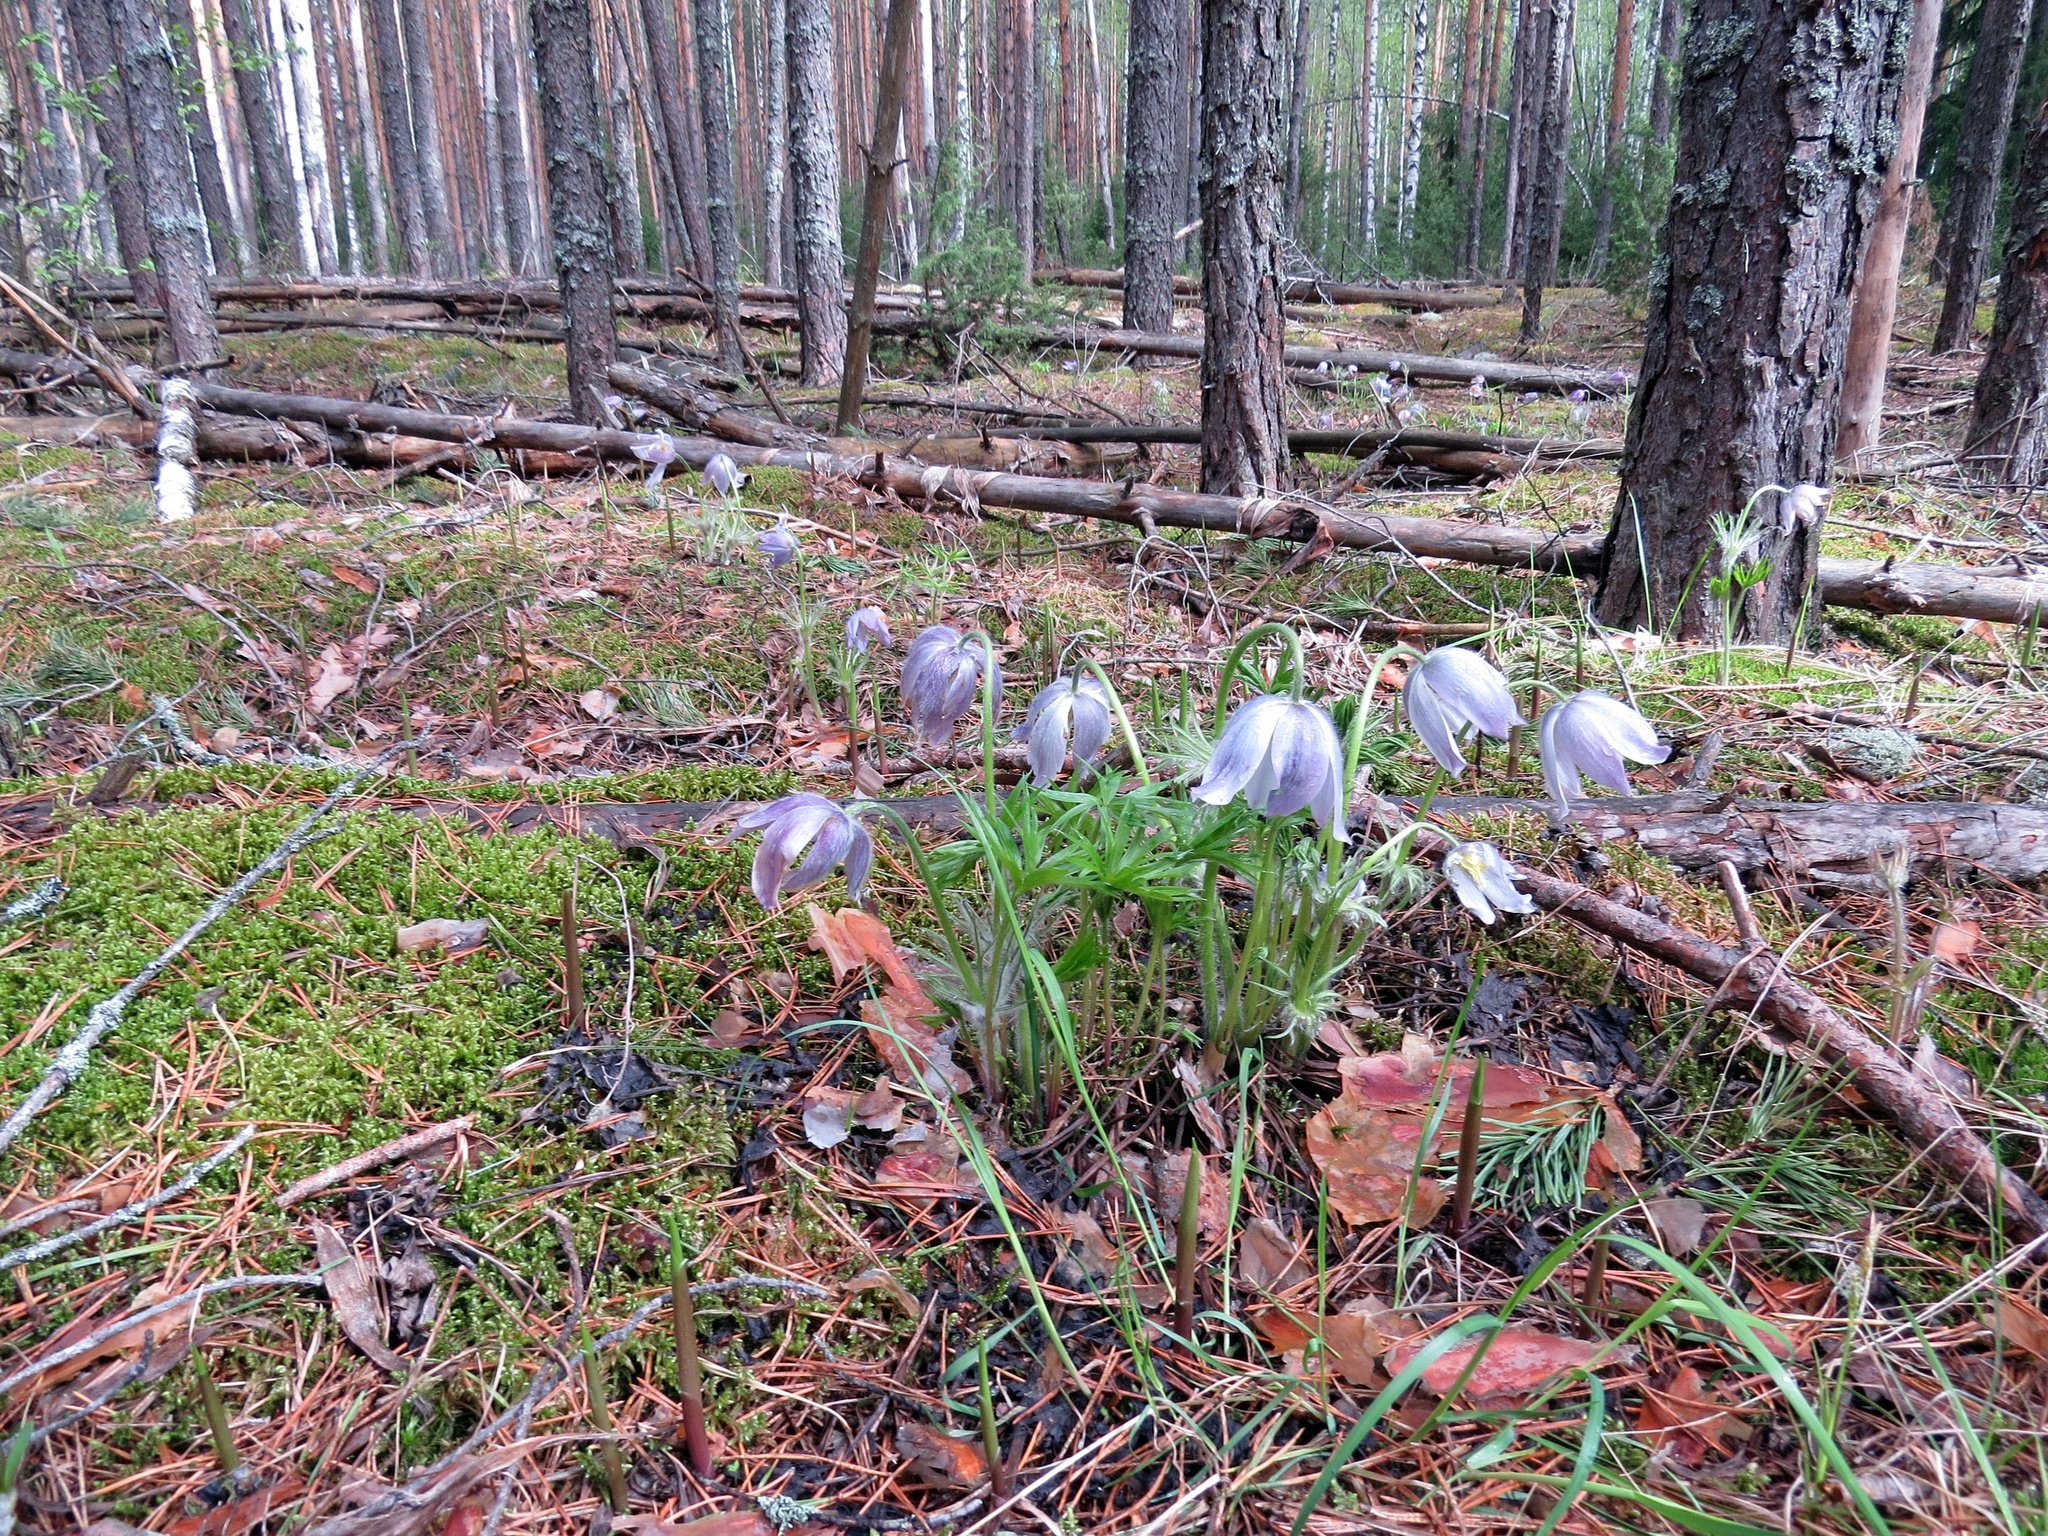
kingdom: Plantae
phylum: Tracheophyta
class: Magnoliopsida
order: Ranunculales
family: Ranunculaceae
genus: Pulsatilla
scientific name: Pulsatilla patens
